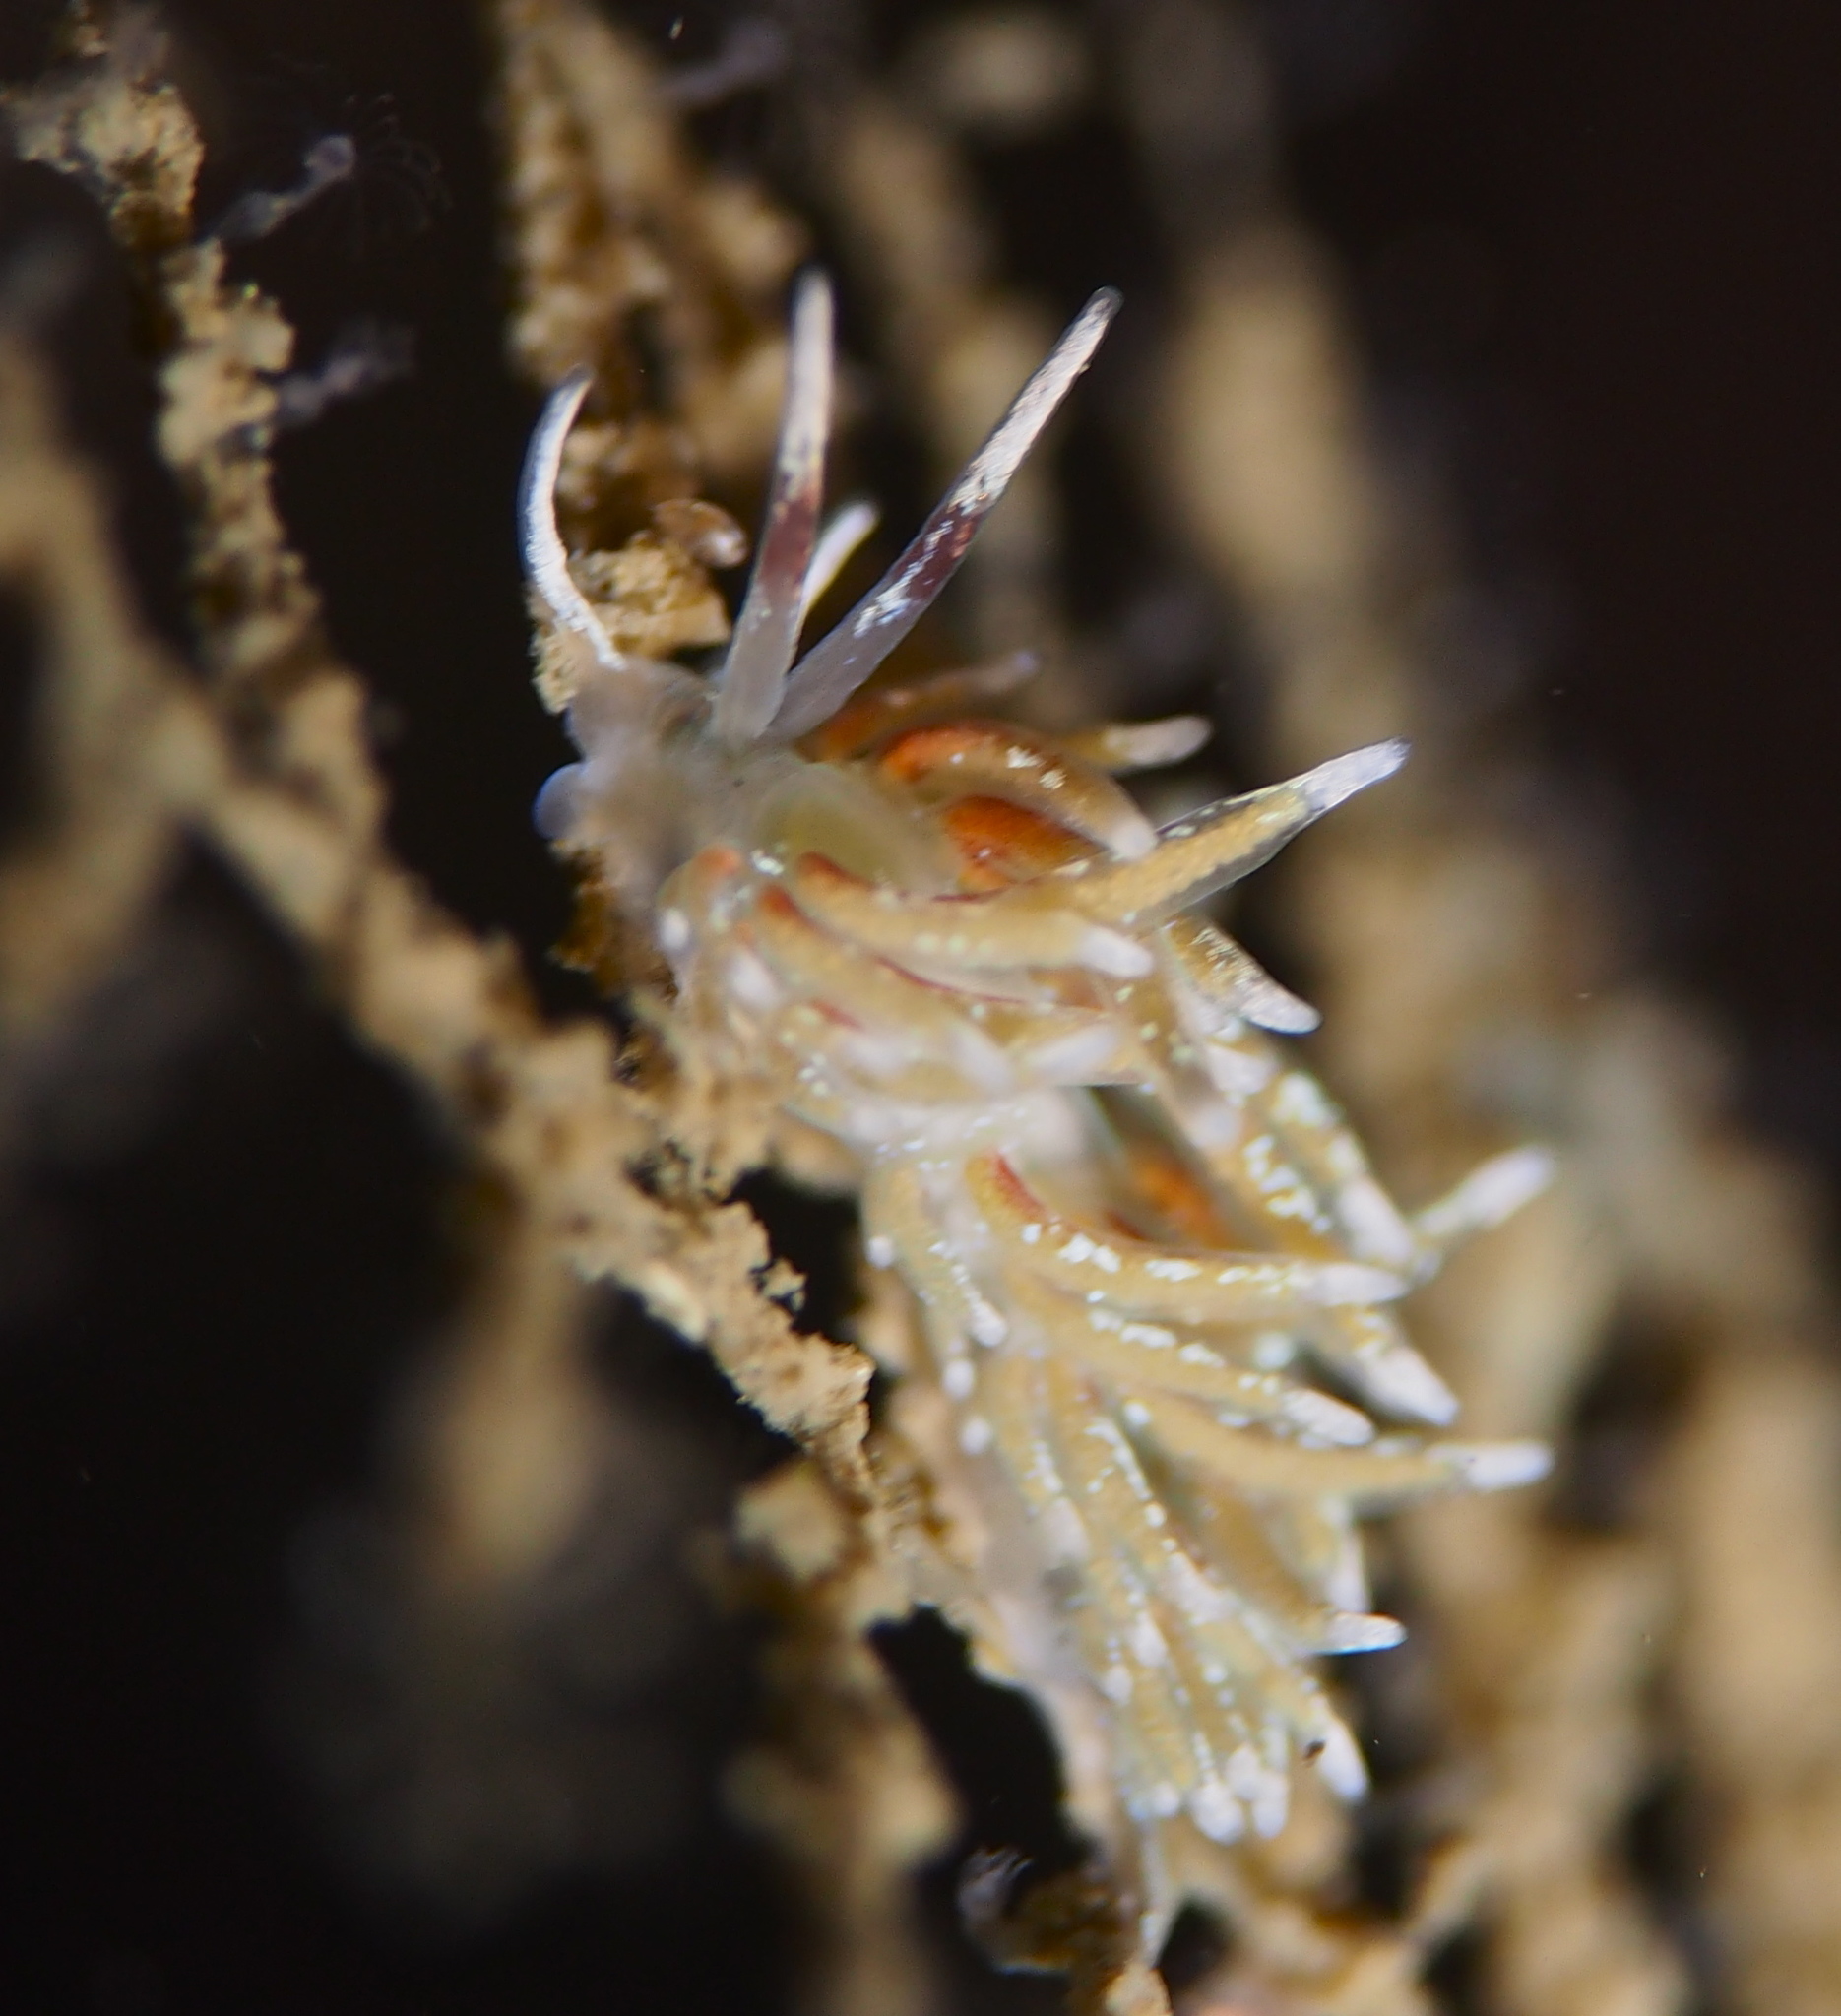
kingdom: Animalia
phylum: Mollusca
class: Gastropoda
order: Nudibranchia
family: Trinchesiidae
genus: Rubramoena
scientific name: Rubramoena rubescens
